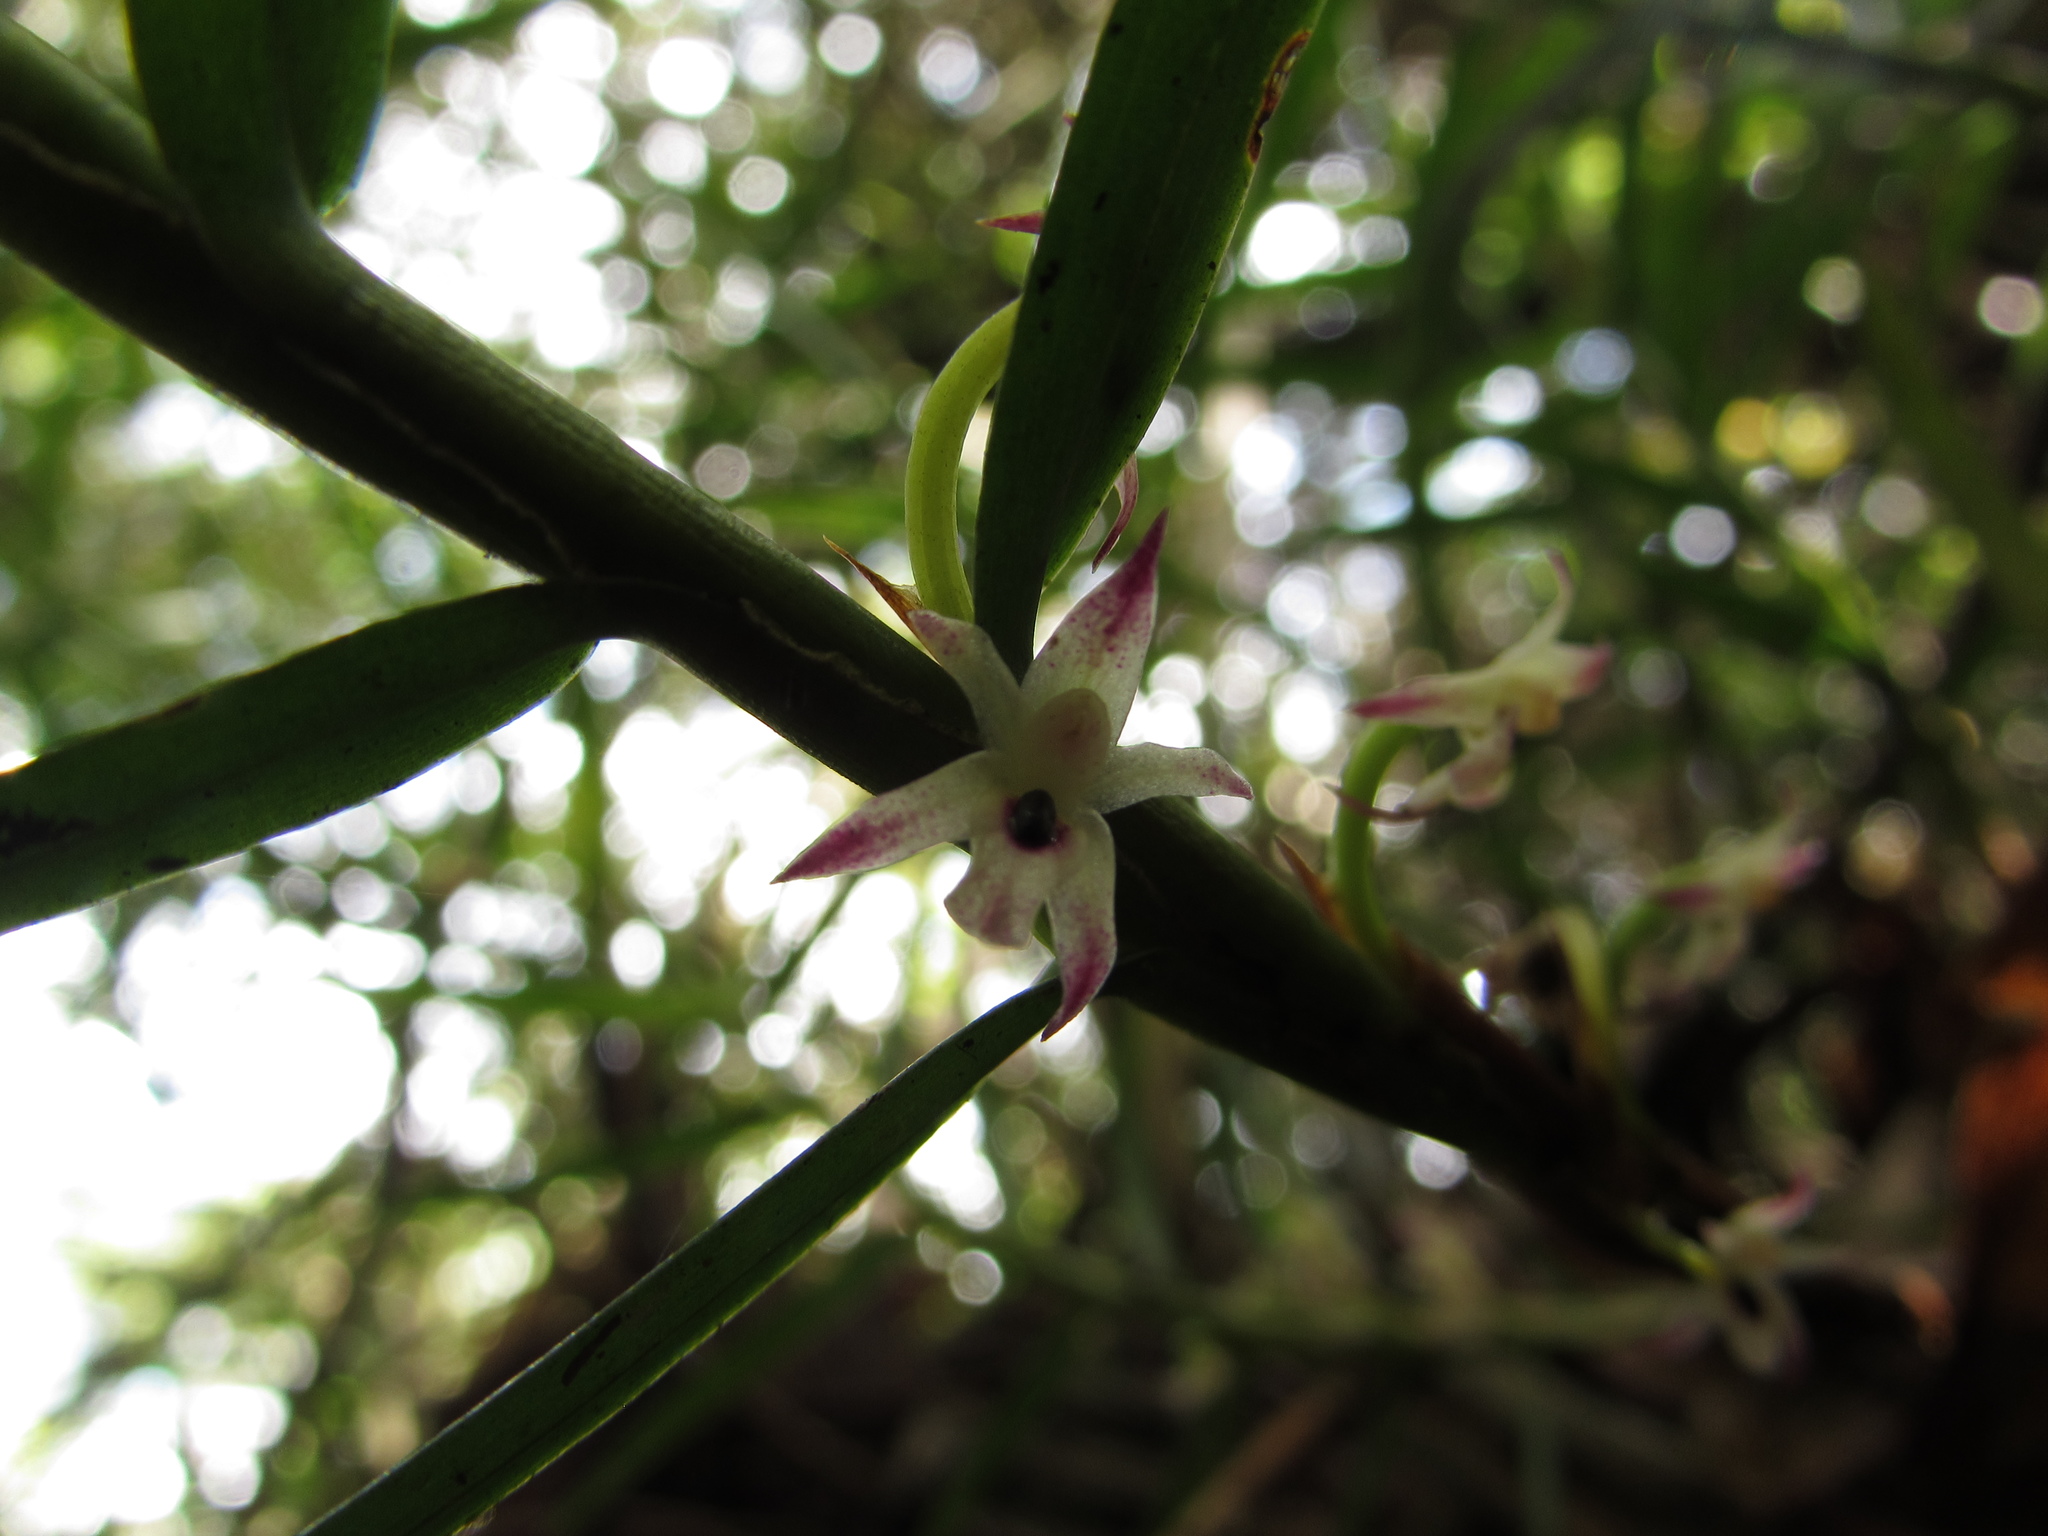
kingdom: Plantae
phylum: Tracheophyta
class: Liliopsida
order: Asparagales
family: Orchidaceae
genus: Maxillaria
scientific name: Maxillaria graminifolia
